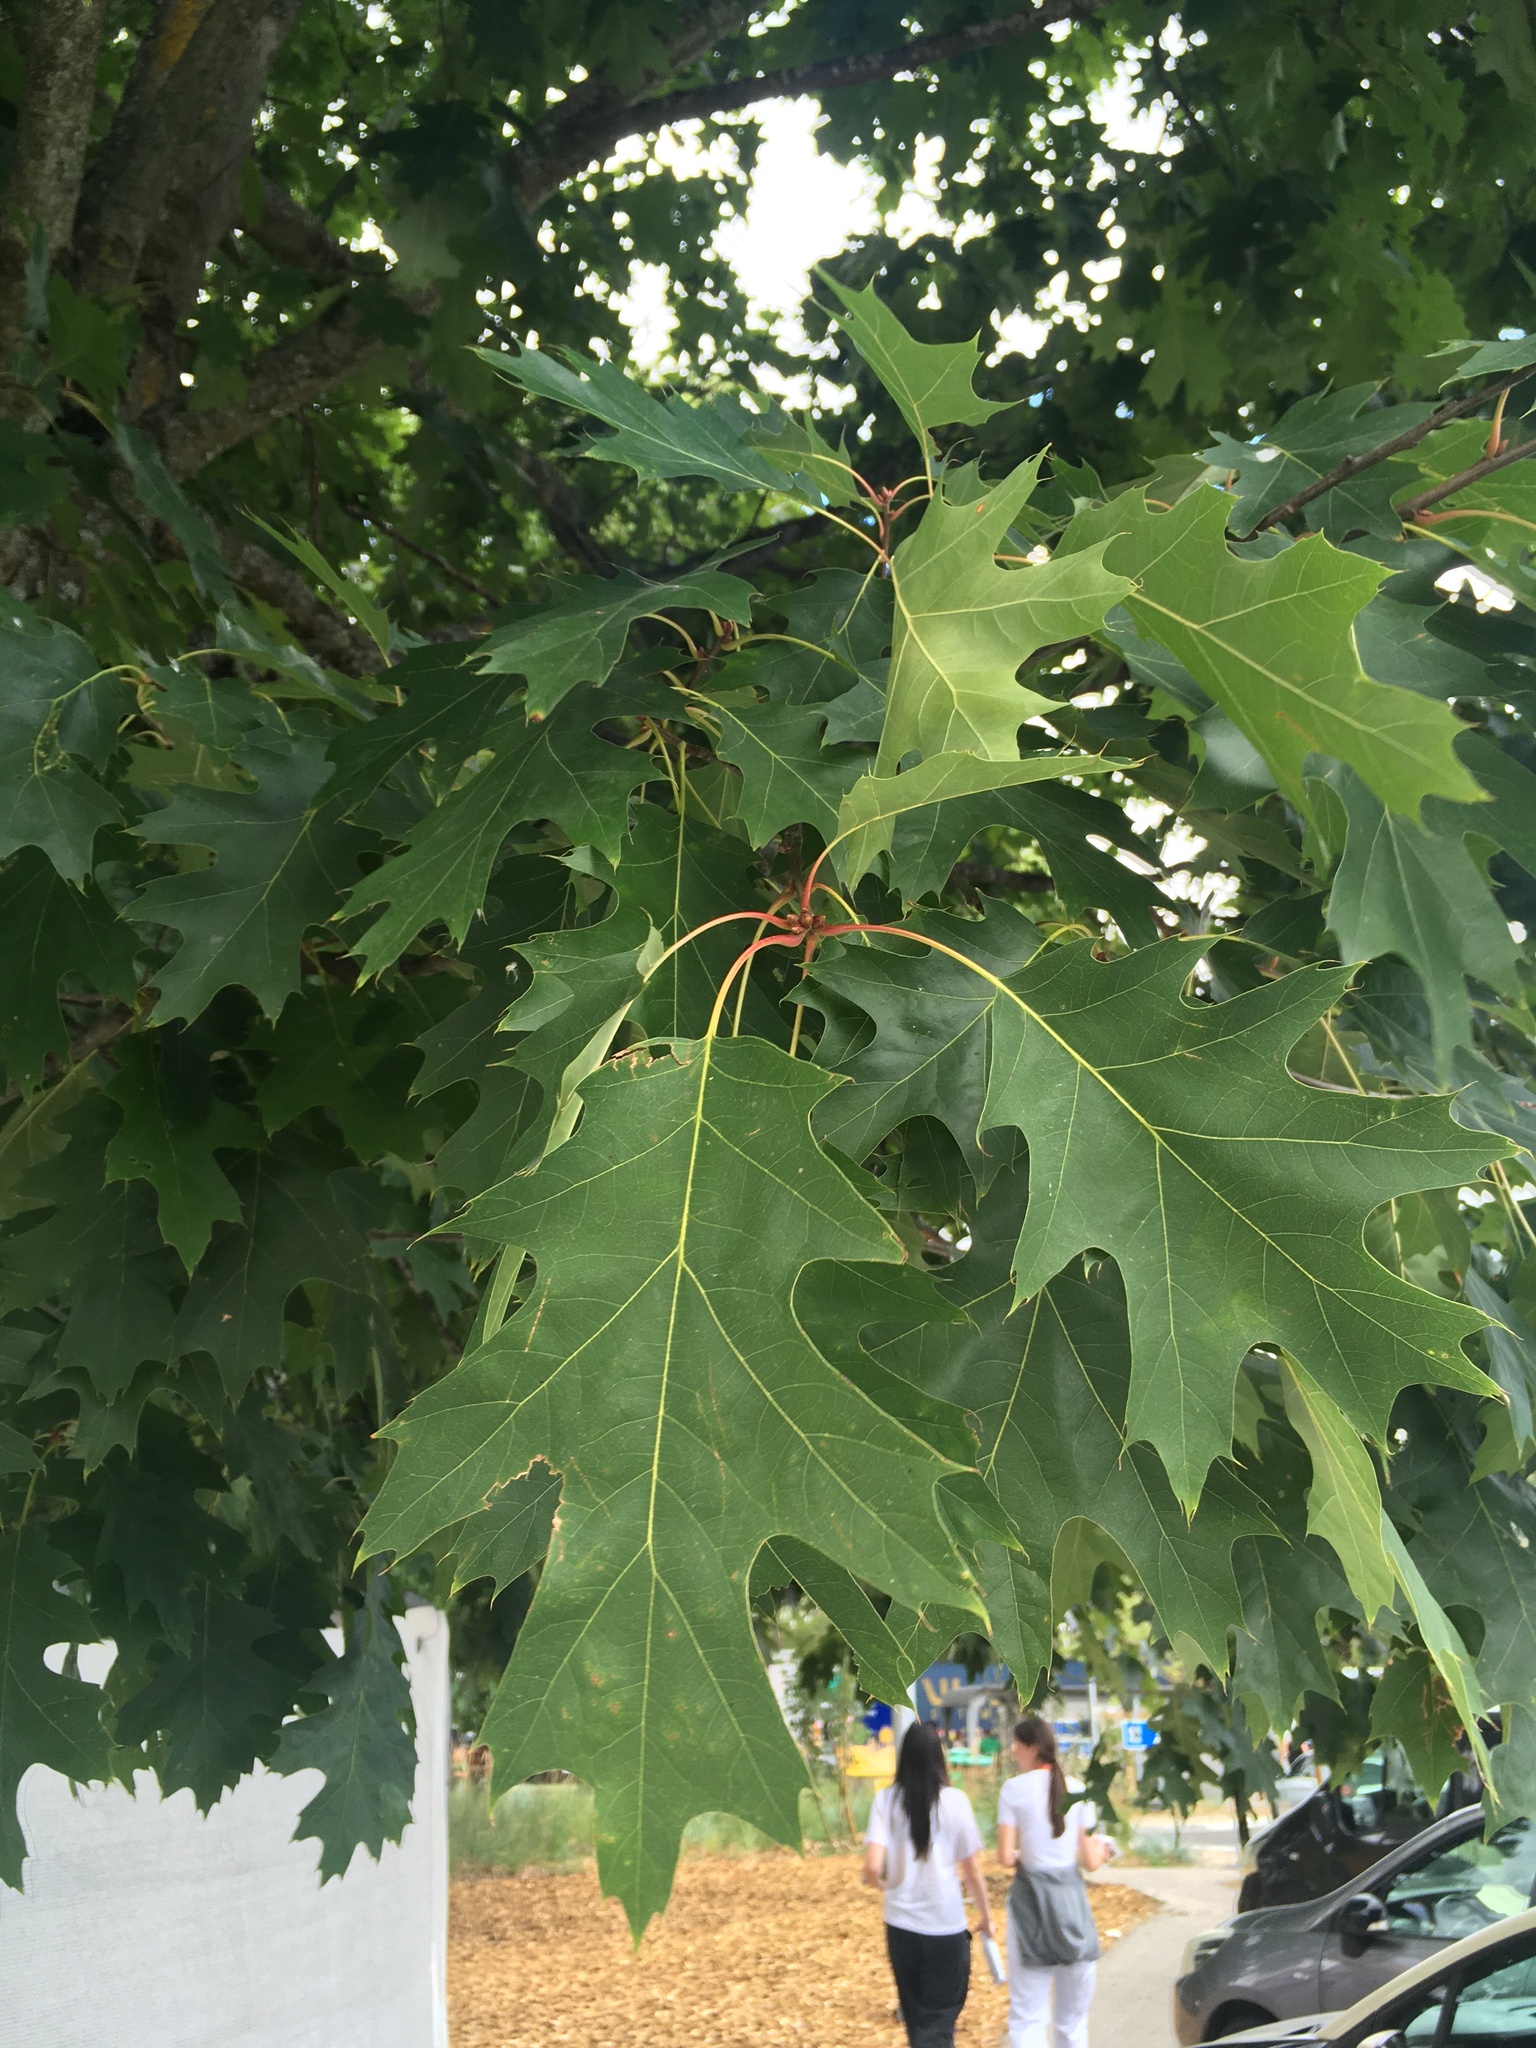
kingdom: Plantae
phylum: Tracheophyta
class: Magnoliopsida
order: Fagales
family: Fagaceae
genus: Quercus
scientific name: Quercus rubra
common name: Red oak
